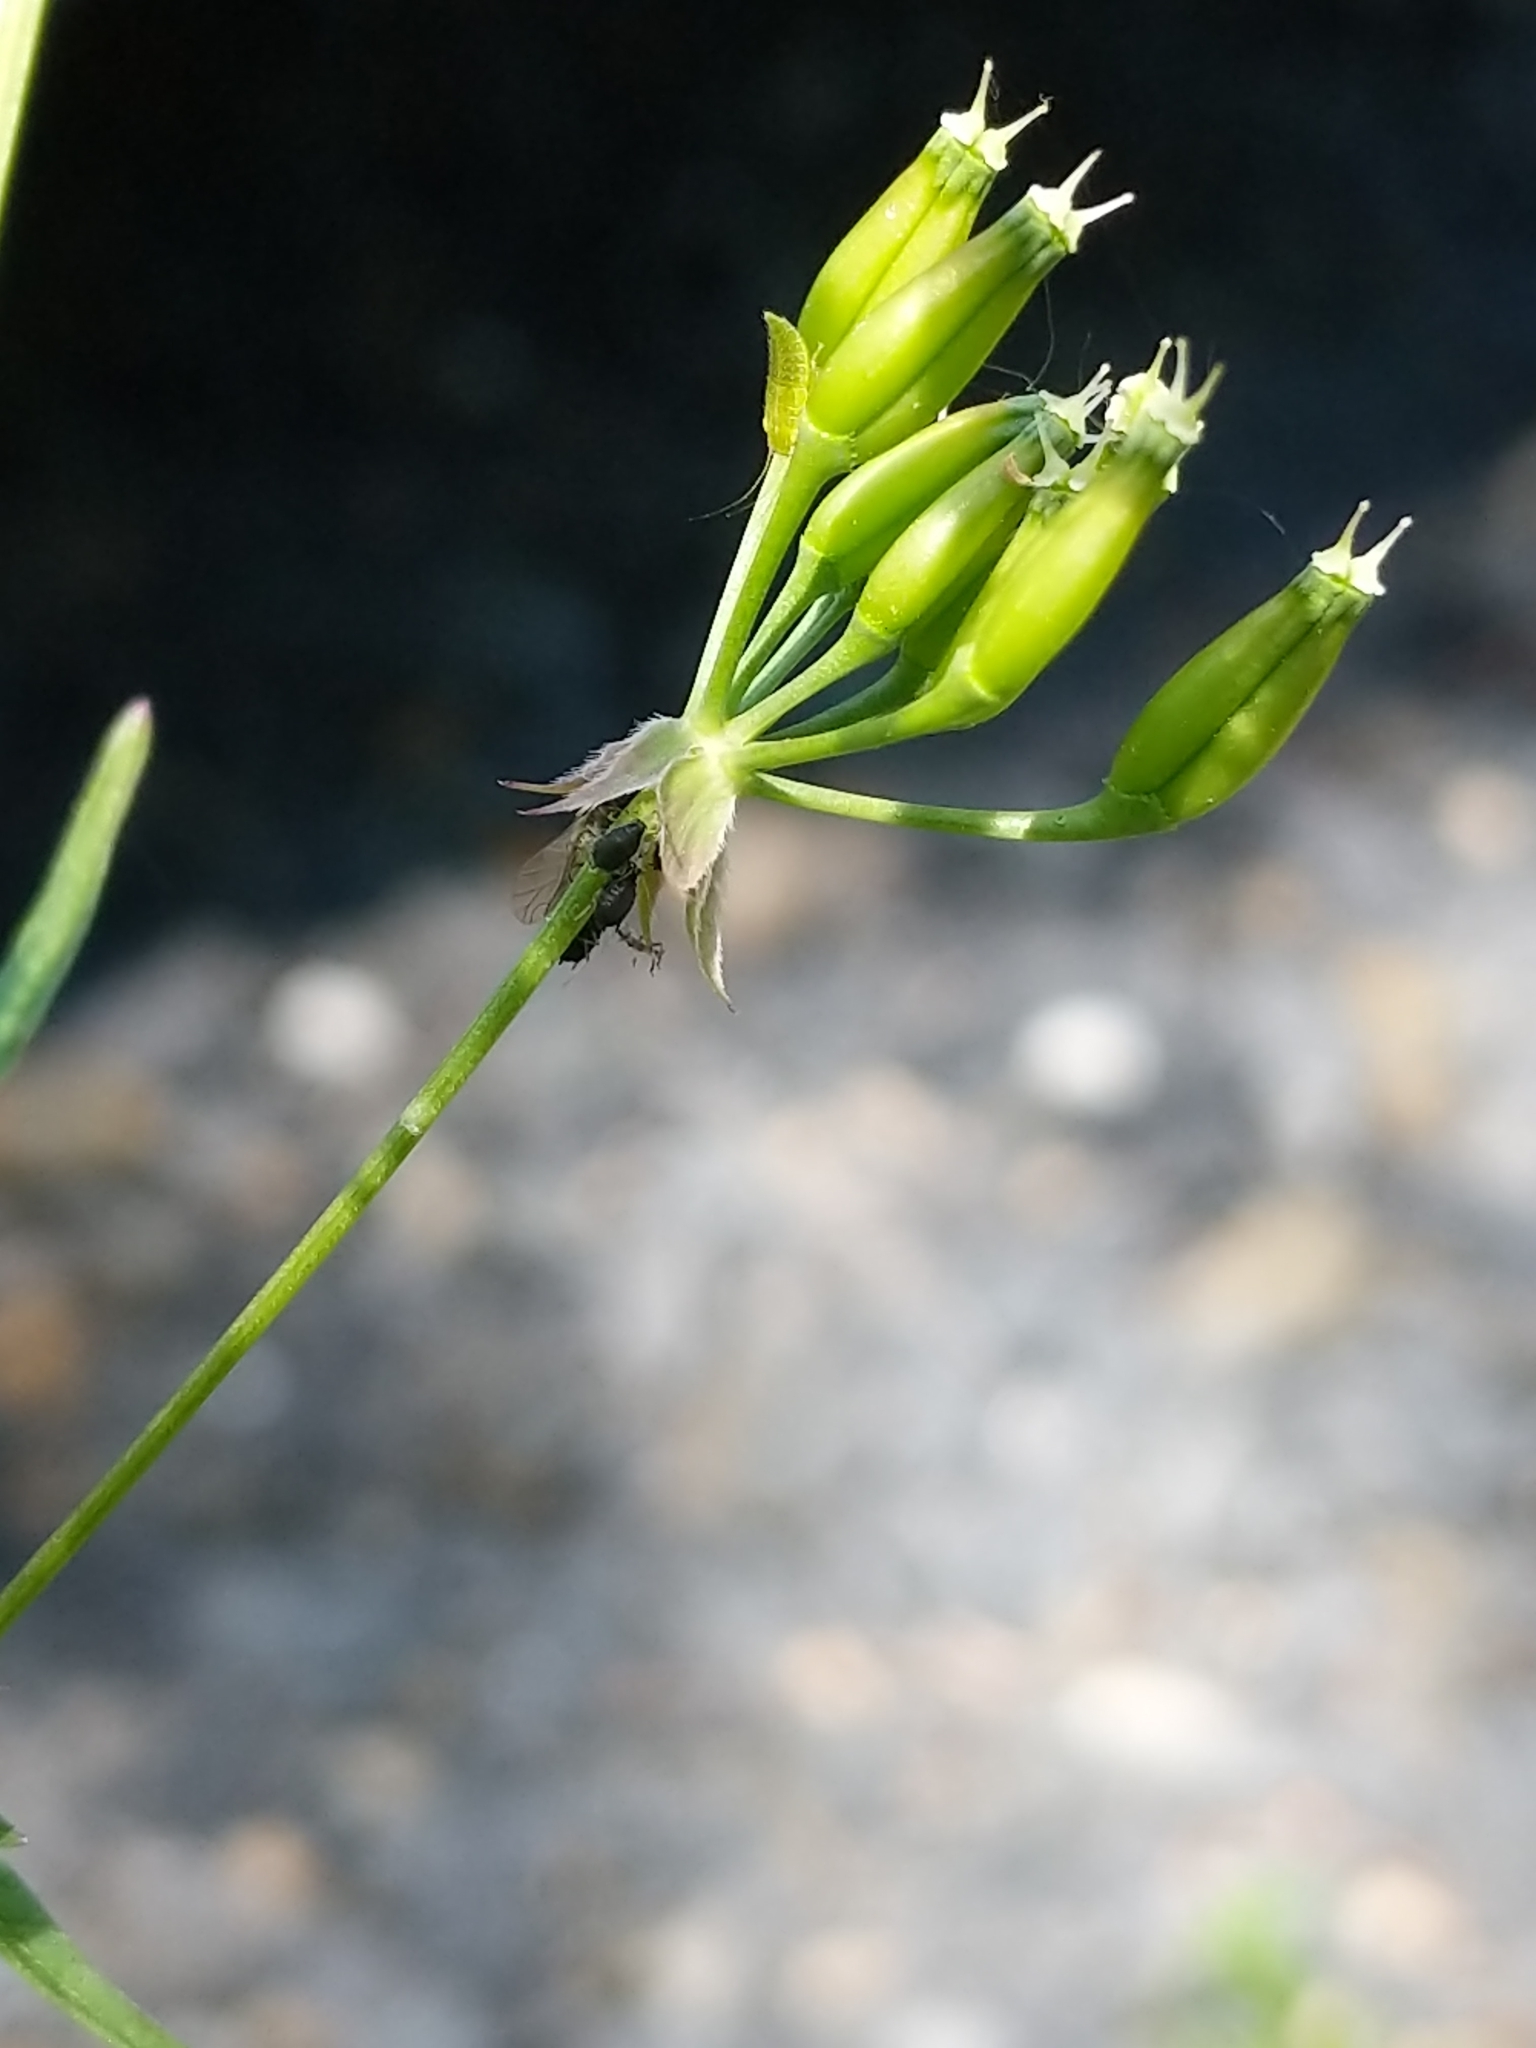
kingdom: Plantae
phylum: Tracheophyta
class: Magnoliopsida
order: Apiales
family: Apiaceae
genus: Anthriscus
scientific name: Anthriscus sylvestris
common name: Cow parsley
